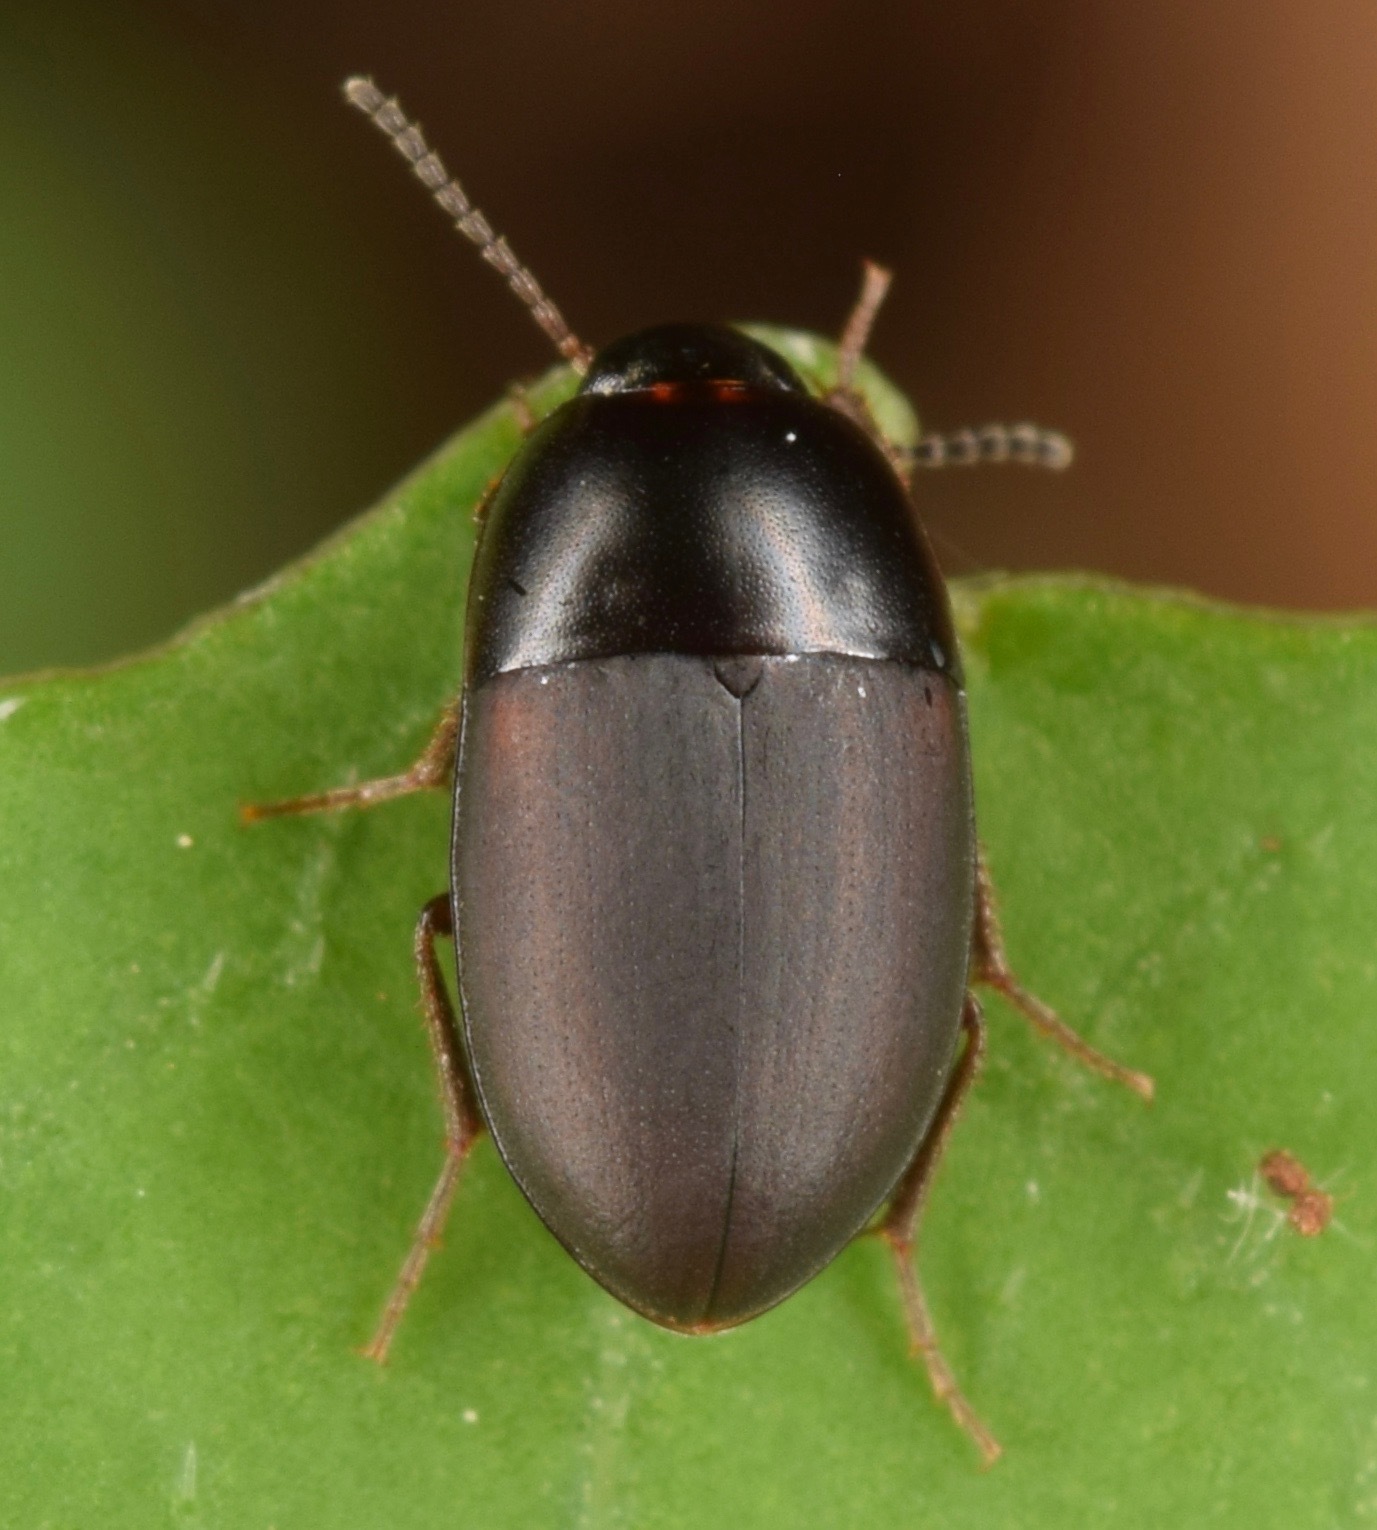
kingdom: Animalia
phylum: Arthropoda
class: Insecta
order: Coleoptera
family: Tenebrionidae
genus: Gondwanocrypticus
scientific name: Gondwanocrypticus platensis
